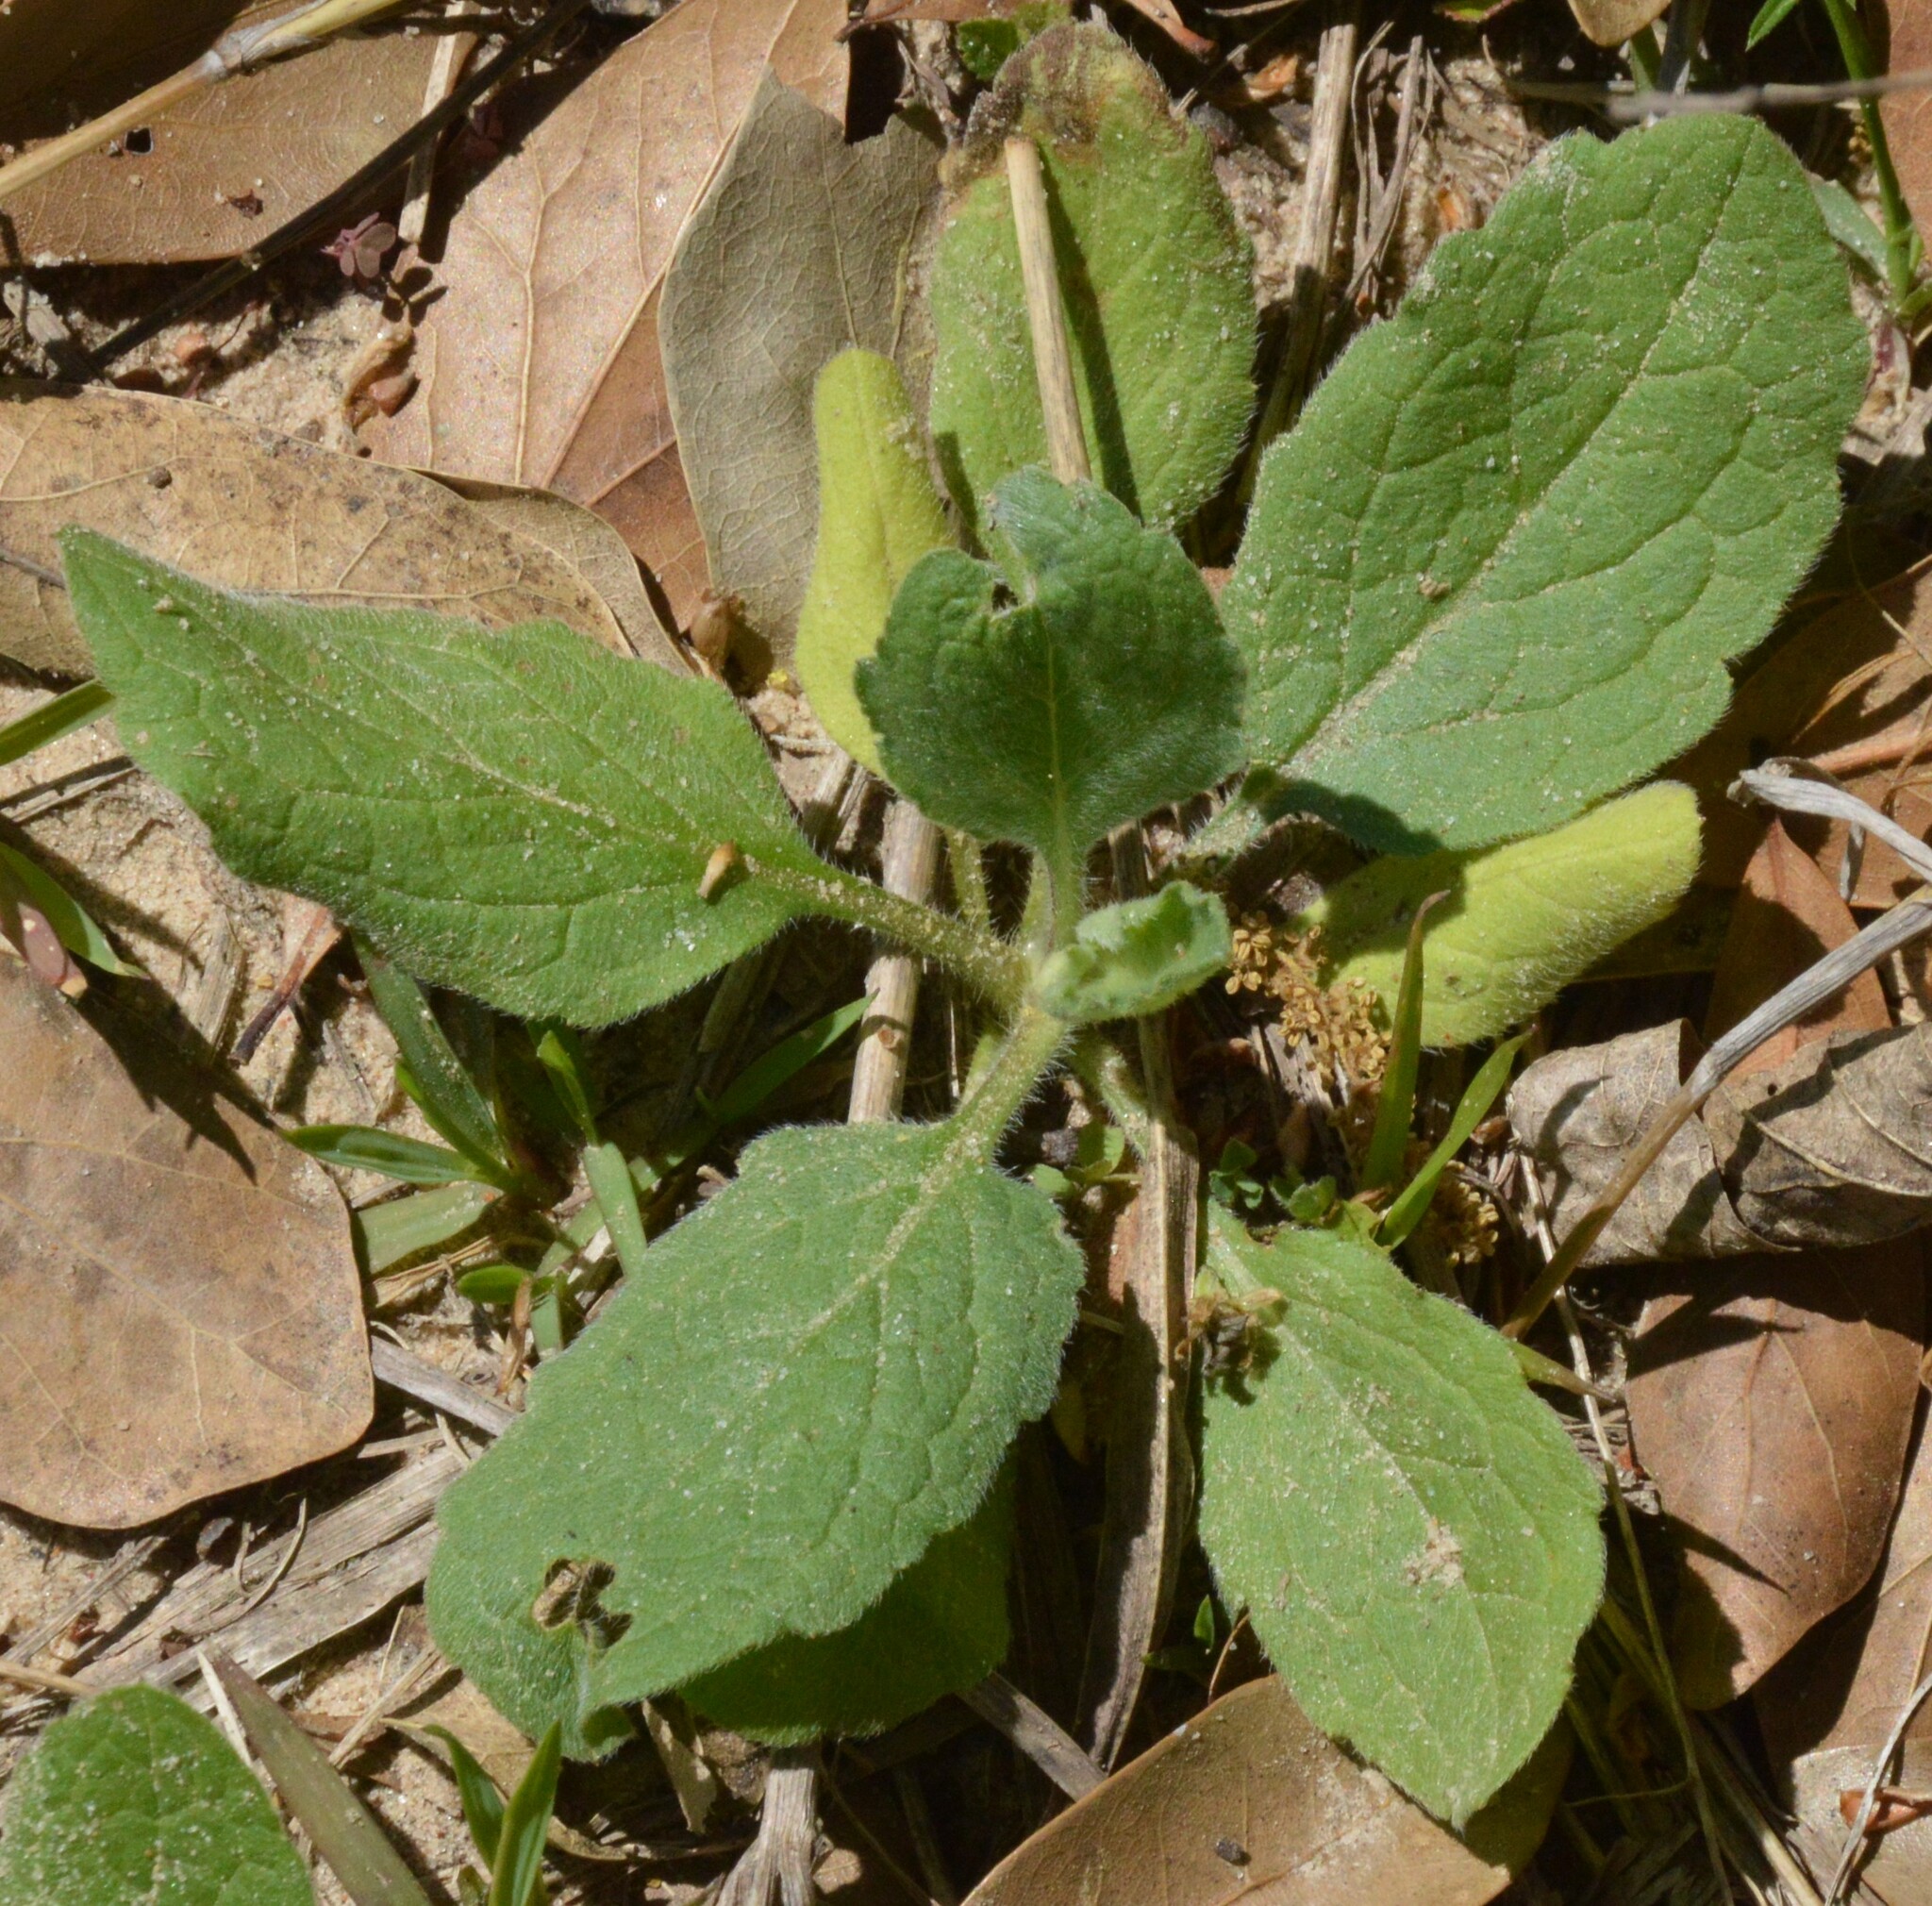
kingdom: Plantae
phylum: Tracheophyta
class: Magnoliopsida
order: Asterales
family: Asteraceae
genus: Heterotheca
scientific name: Heterotheca subaxillaris
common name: Camphorweed
